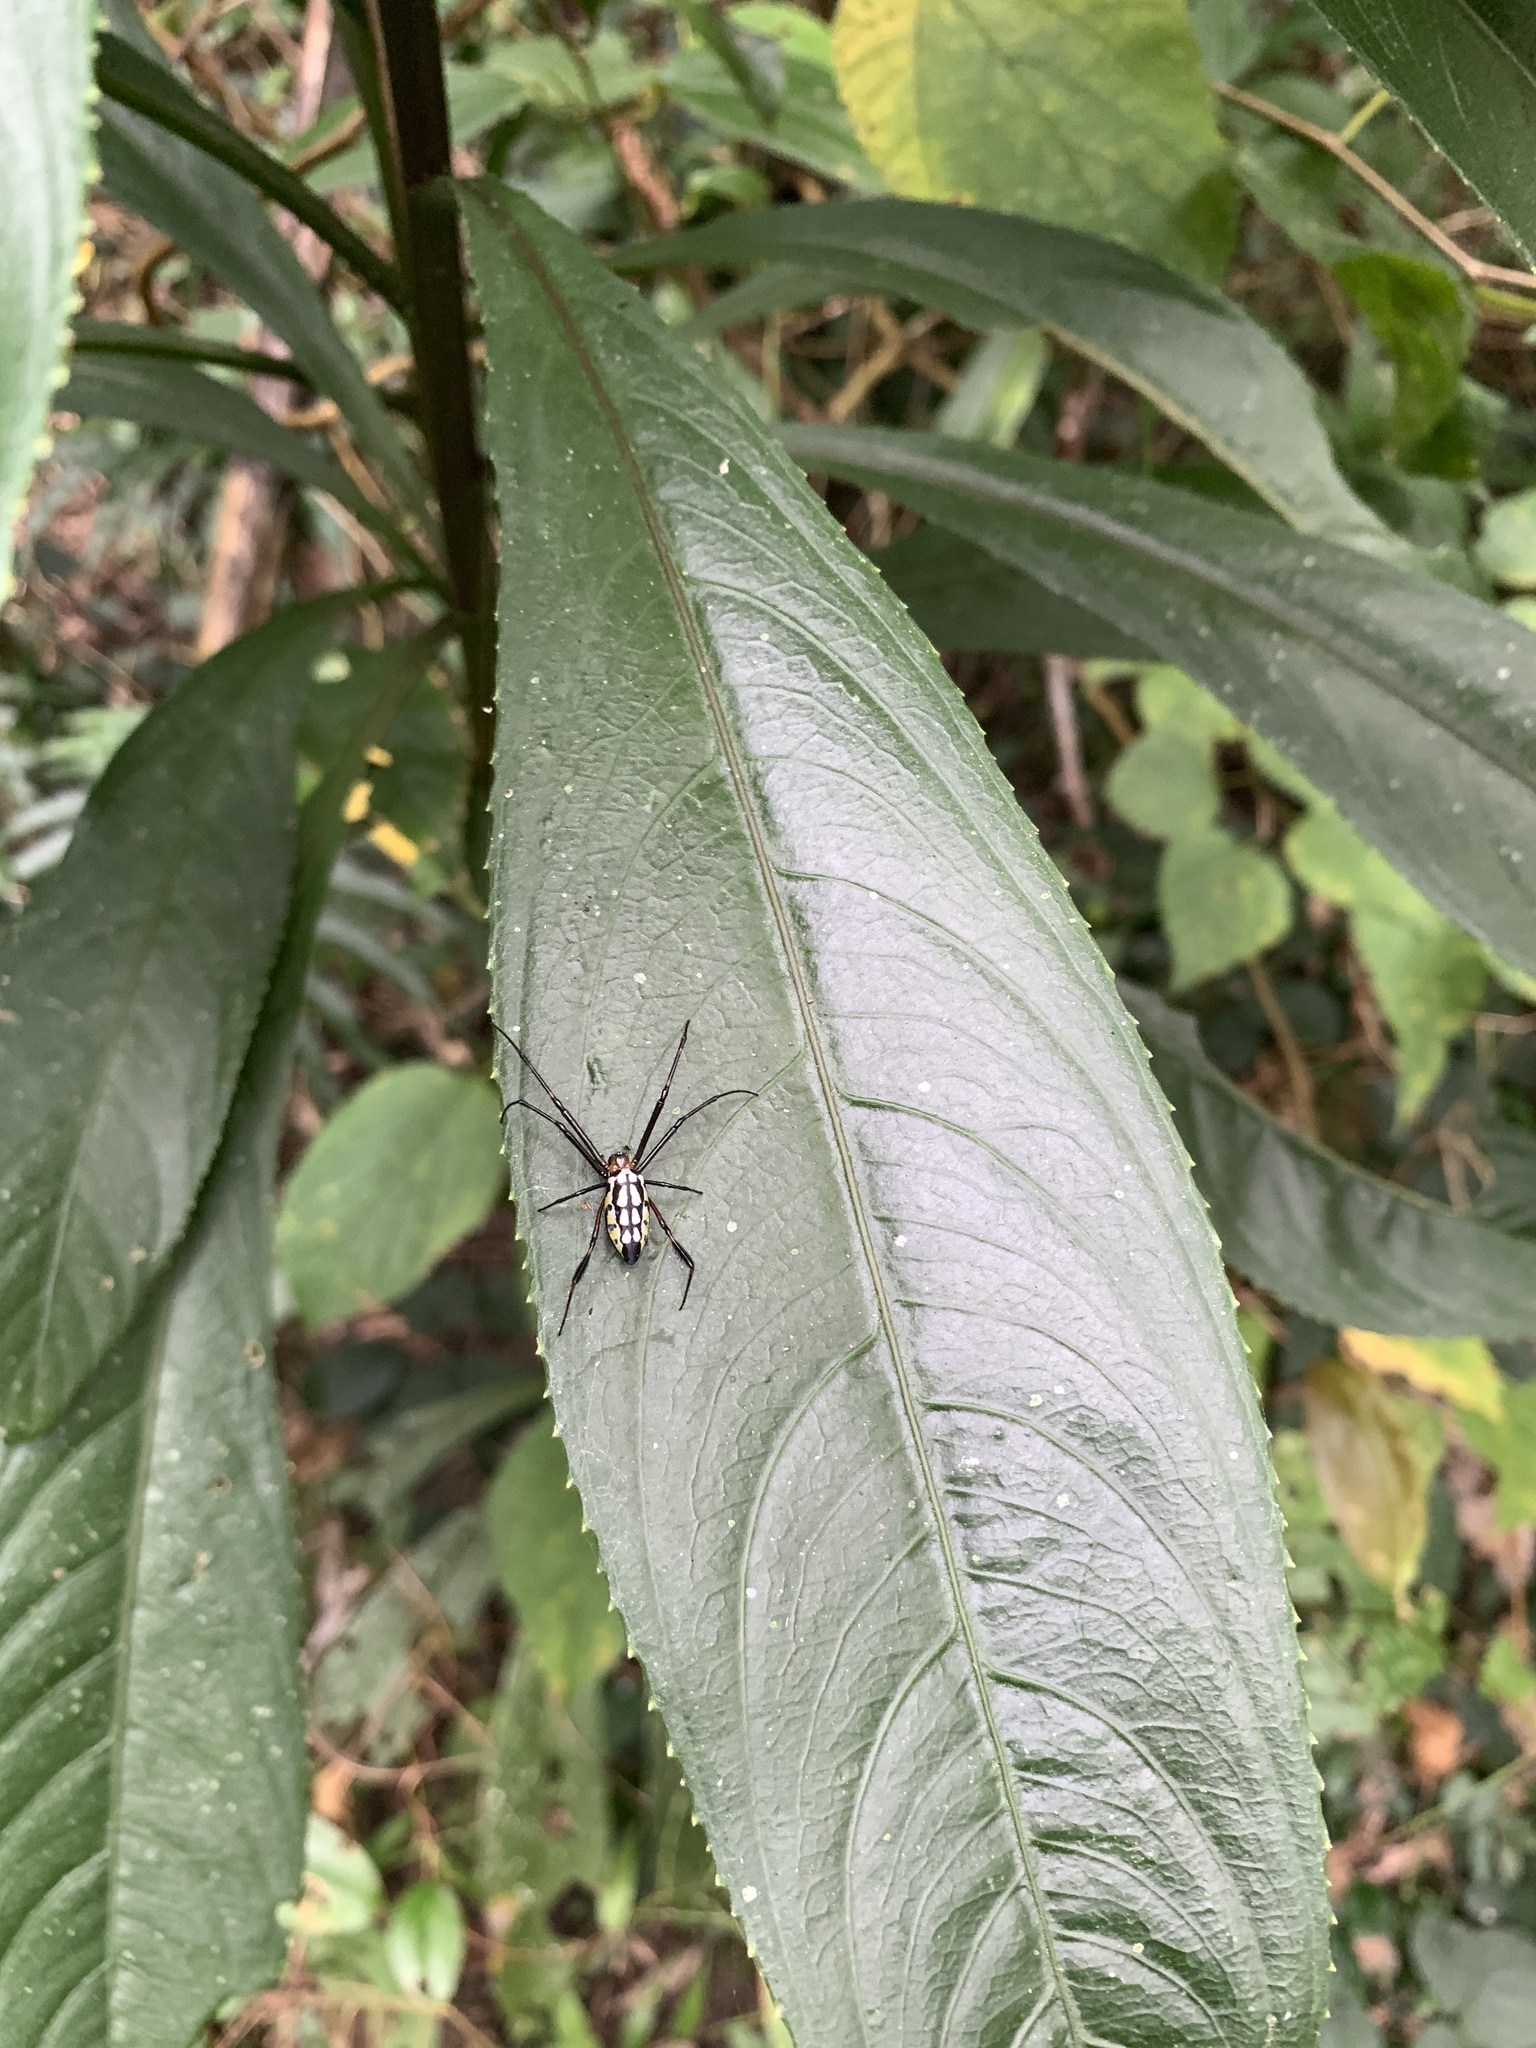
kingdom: Animalia
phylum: Arthropoda
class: Arachnida
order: Araneae
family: Tetragnathidae
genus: Leucauge
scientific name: Leucauge tessellata
